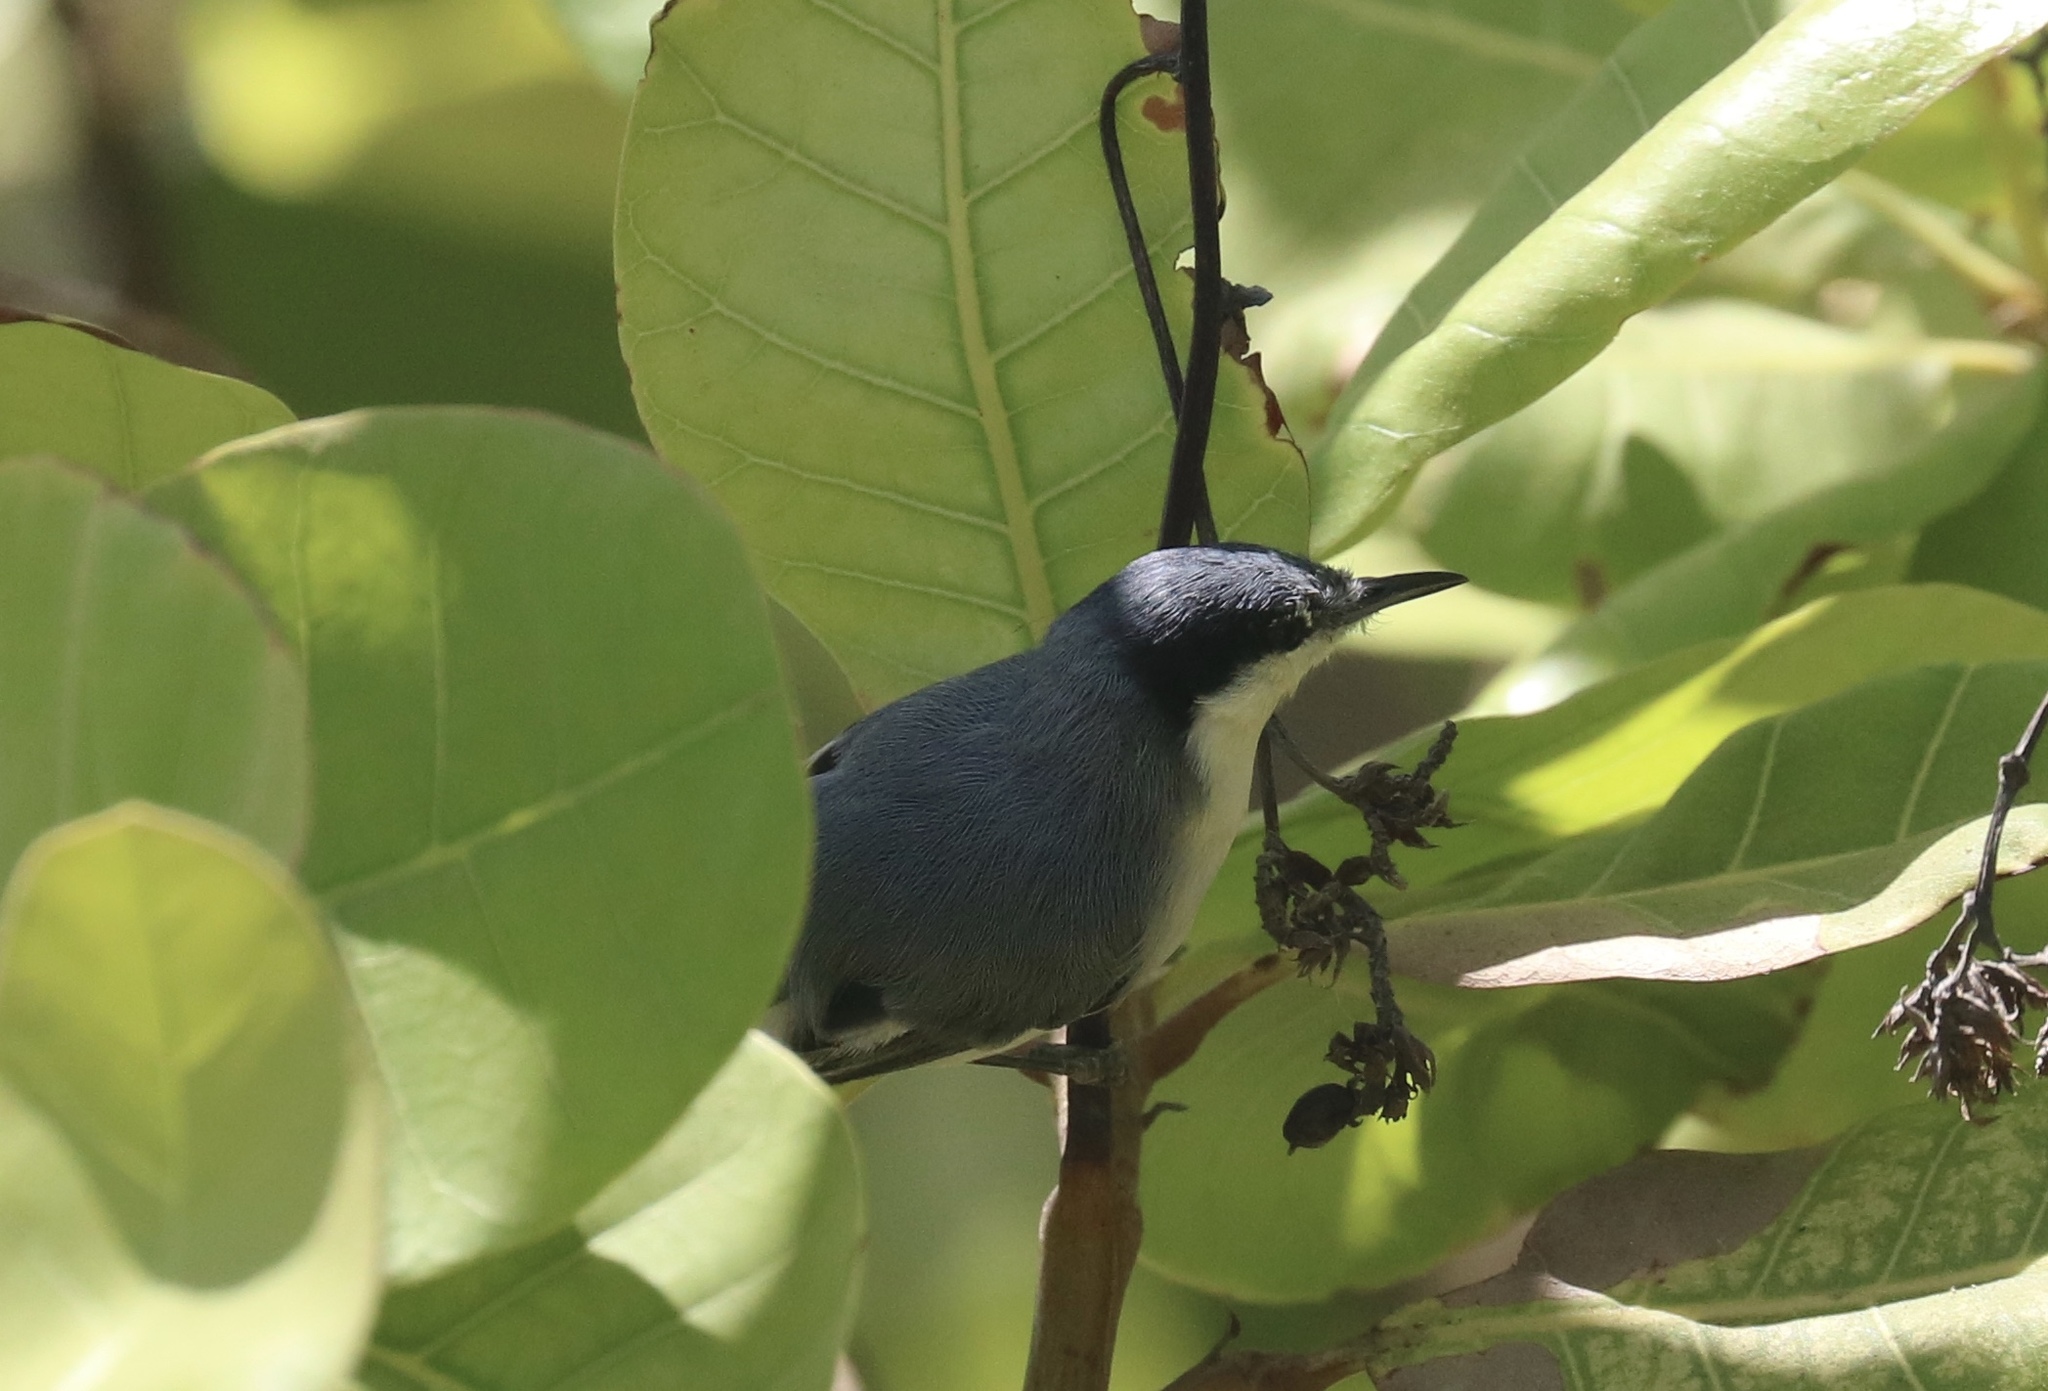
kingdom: Animalia
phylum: Chordata
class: Aves
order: Passeriformes
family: Polioptilidae
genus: Polioptila
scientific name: Polioptila plumbea
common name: Tropical gnatcatcher
